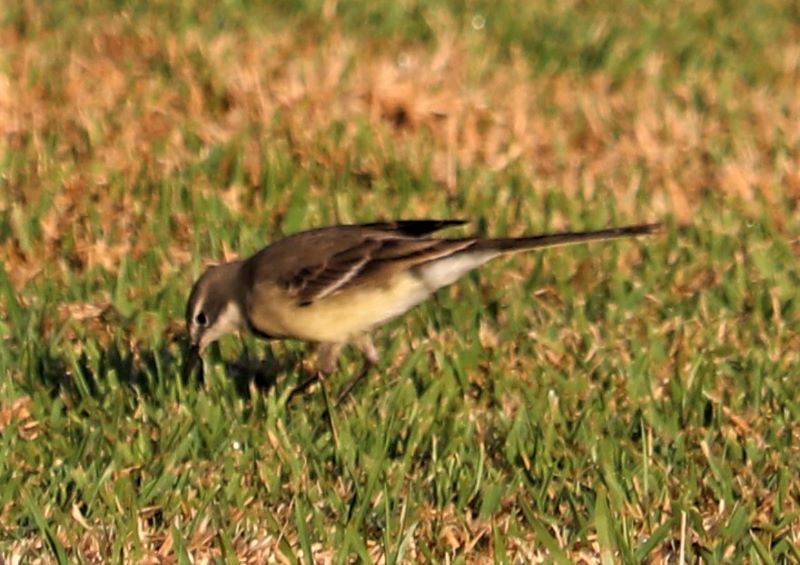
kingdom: Animalia
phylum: Chordata
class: Aves
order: Passeriformes
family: Motacillidae
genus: Motacilla
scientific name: Motacilla capensis
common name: Cape wagtail
